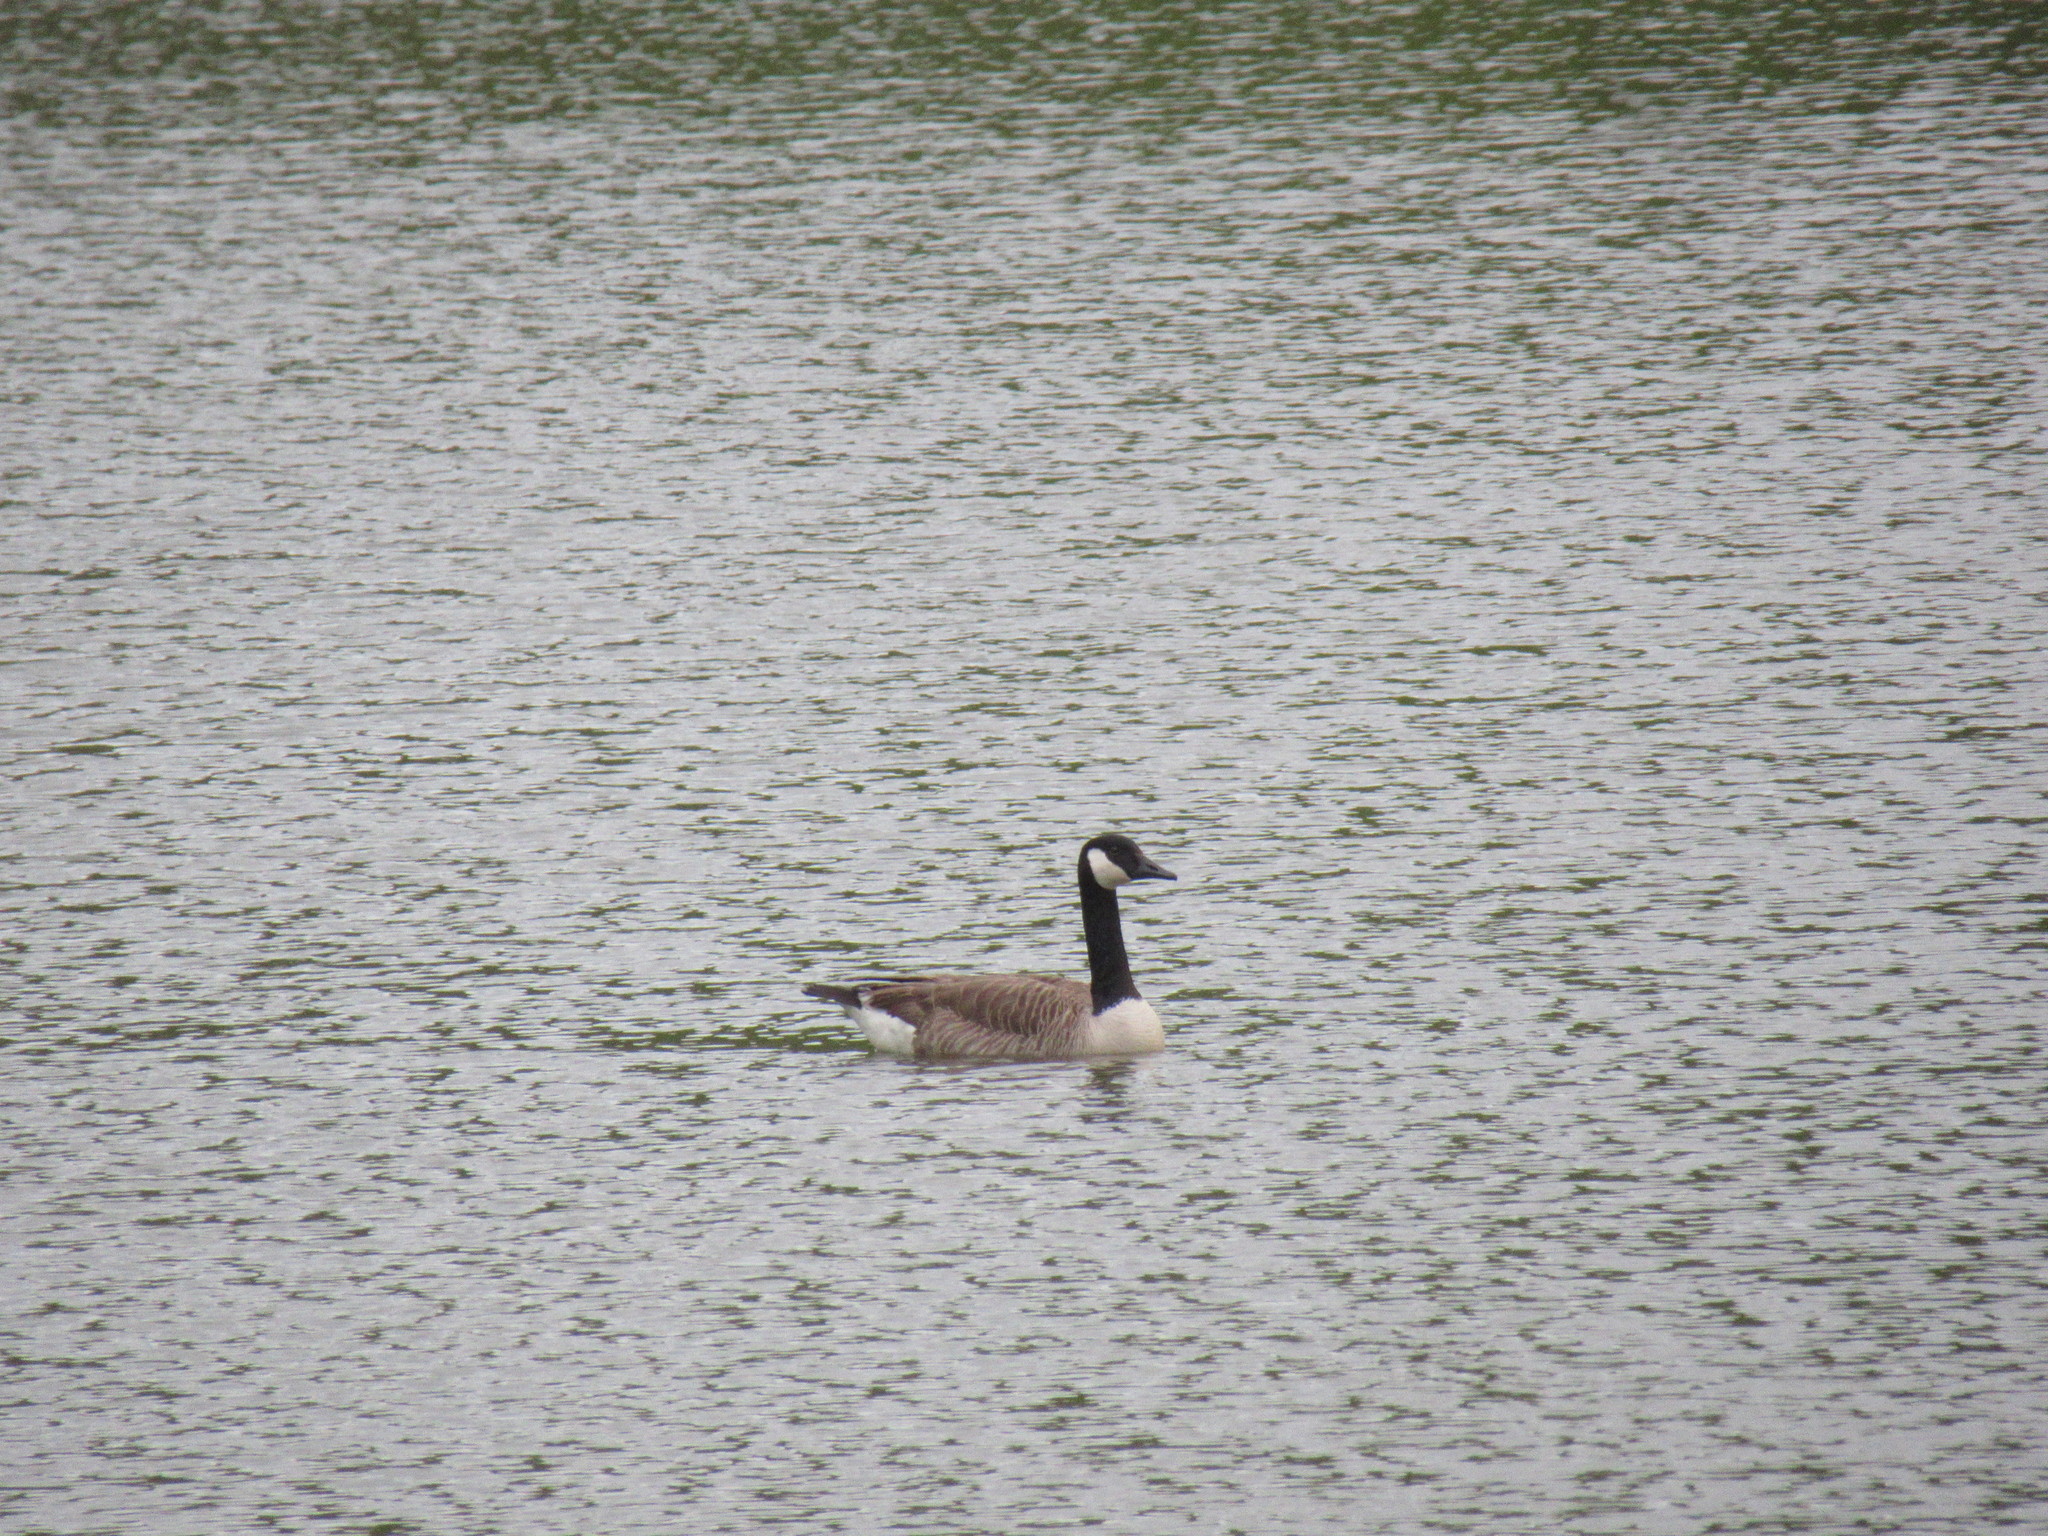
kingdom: Animalia
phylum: Chordata
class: Aves
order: Anseriformes
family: Anatidae
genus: Branta
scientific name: Branta canadensis
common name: Canada goose
